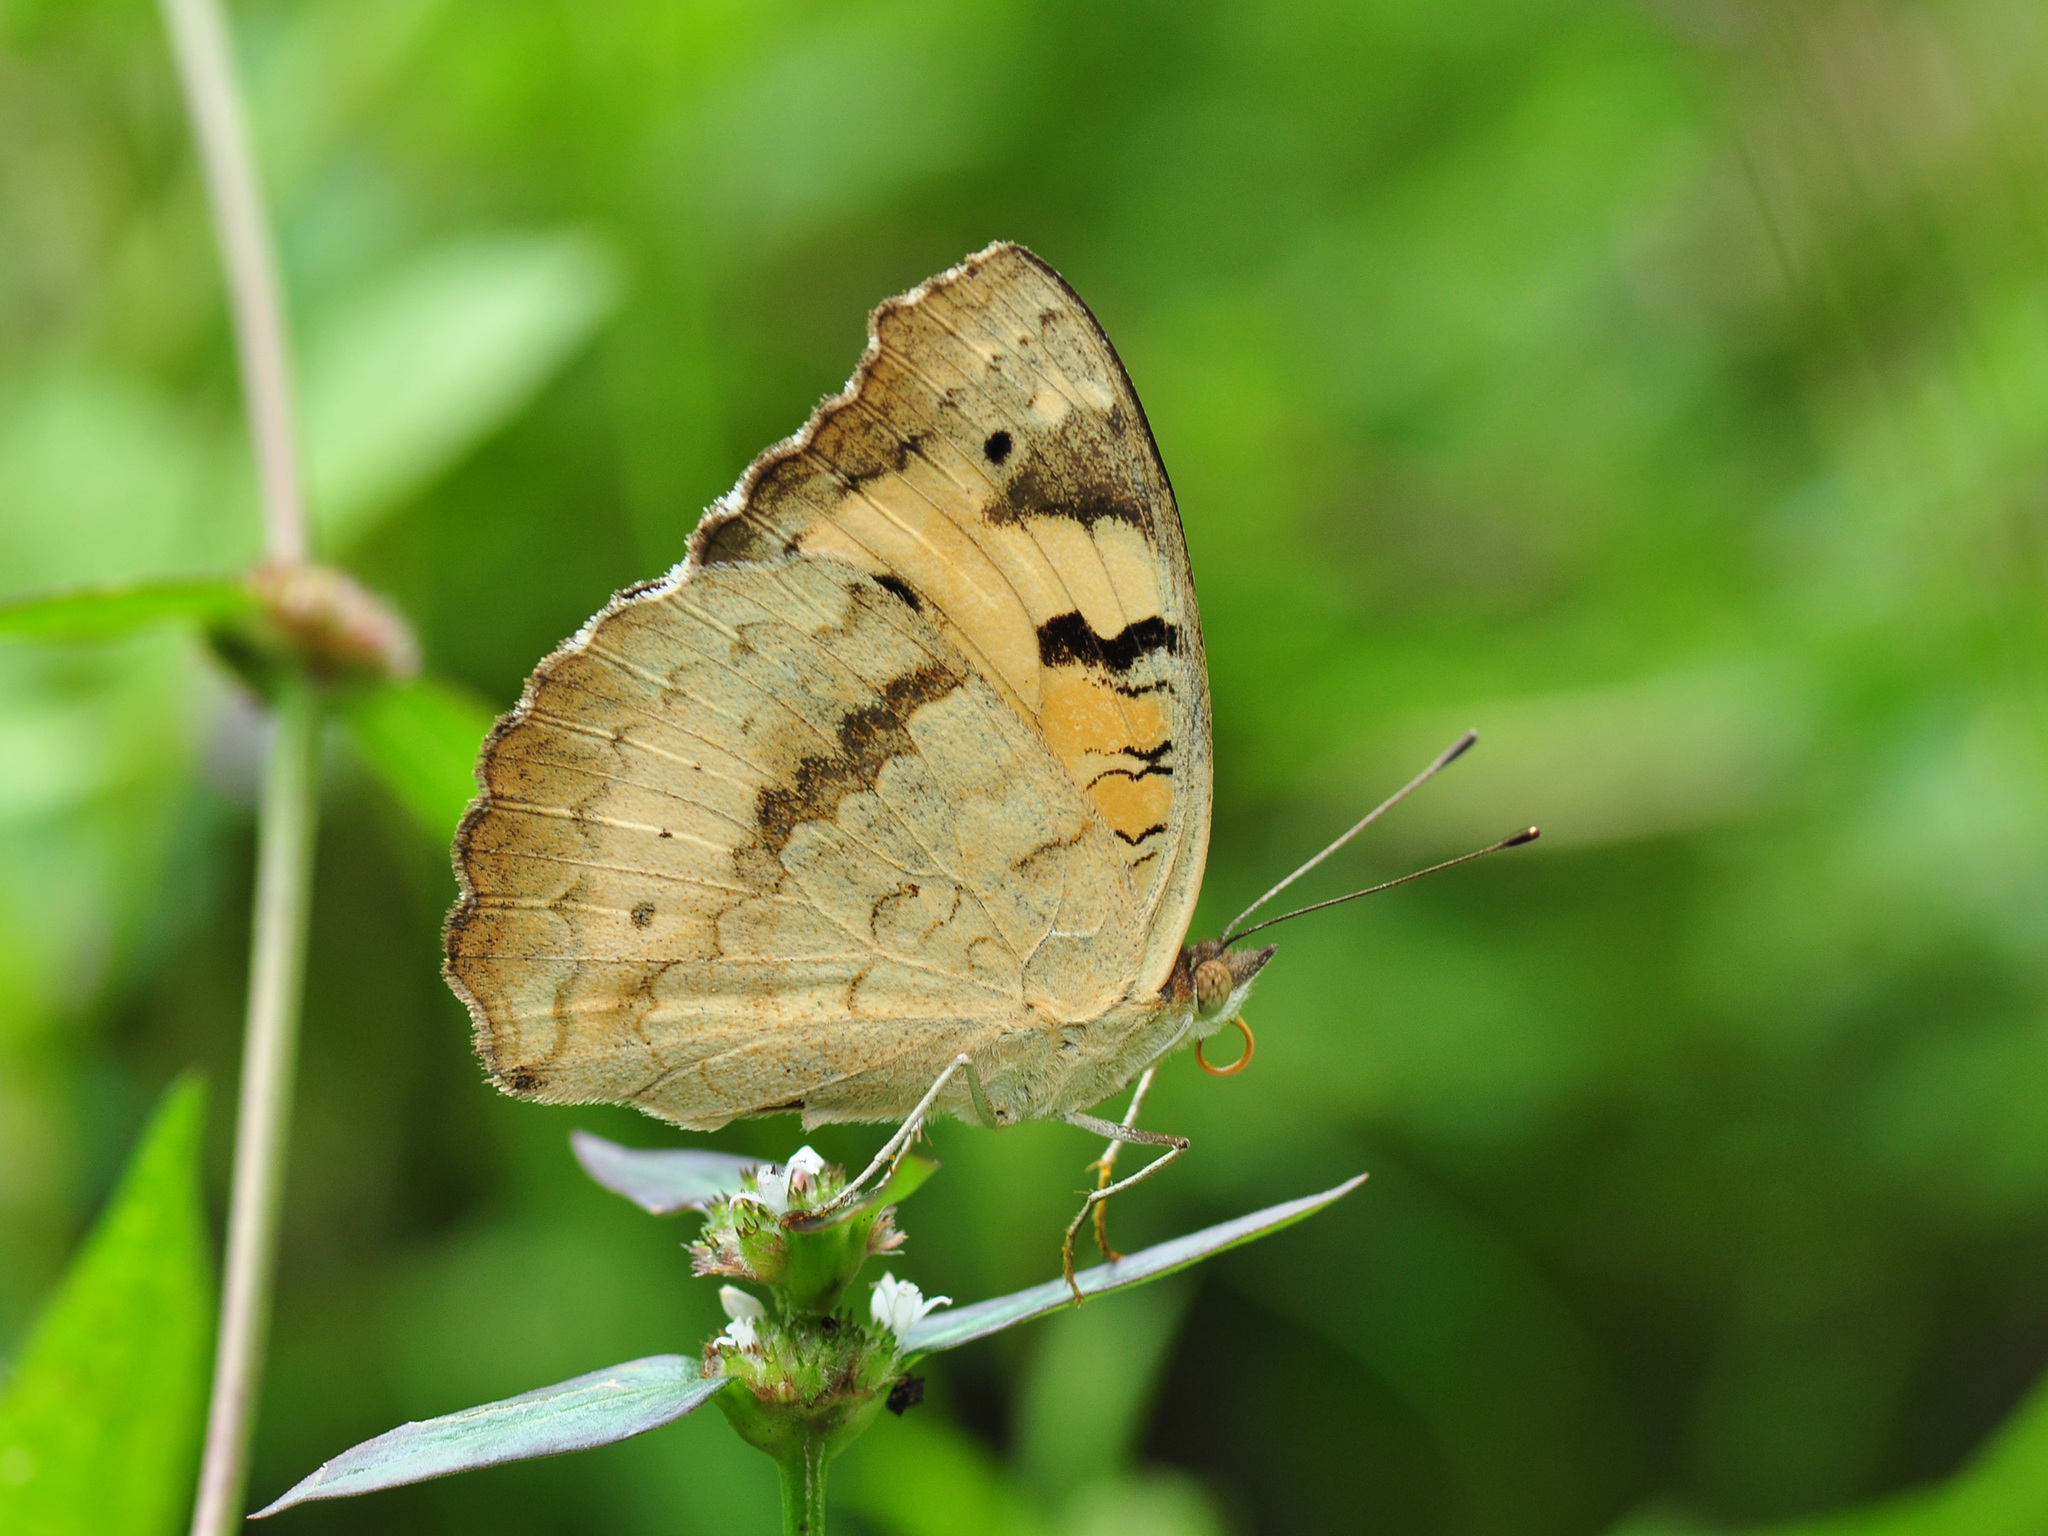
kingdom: Animalia
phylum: Arthropoda
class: Insecta
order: Lepidoptera
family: Nymphalidae
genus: Junonia
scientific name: Junonia hierta
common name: Yellow pansy
